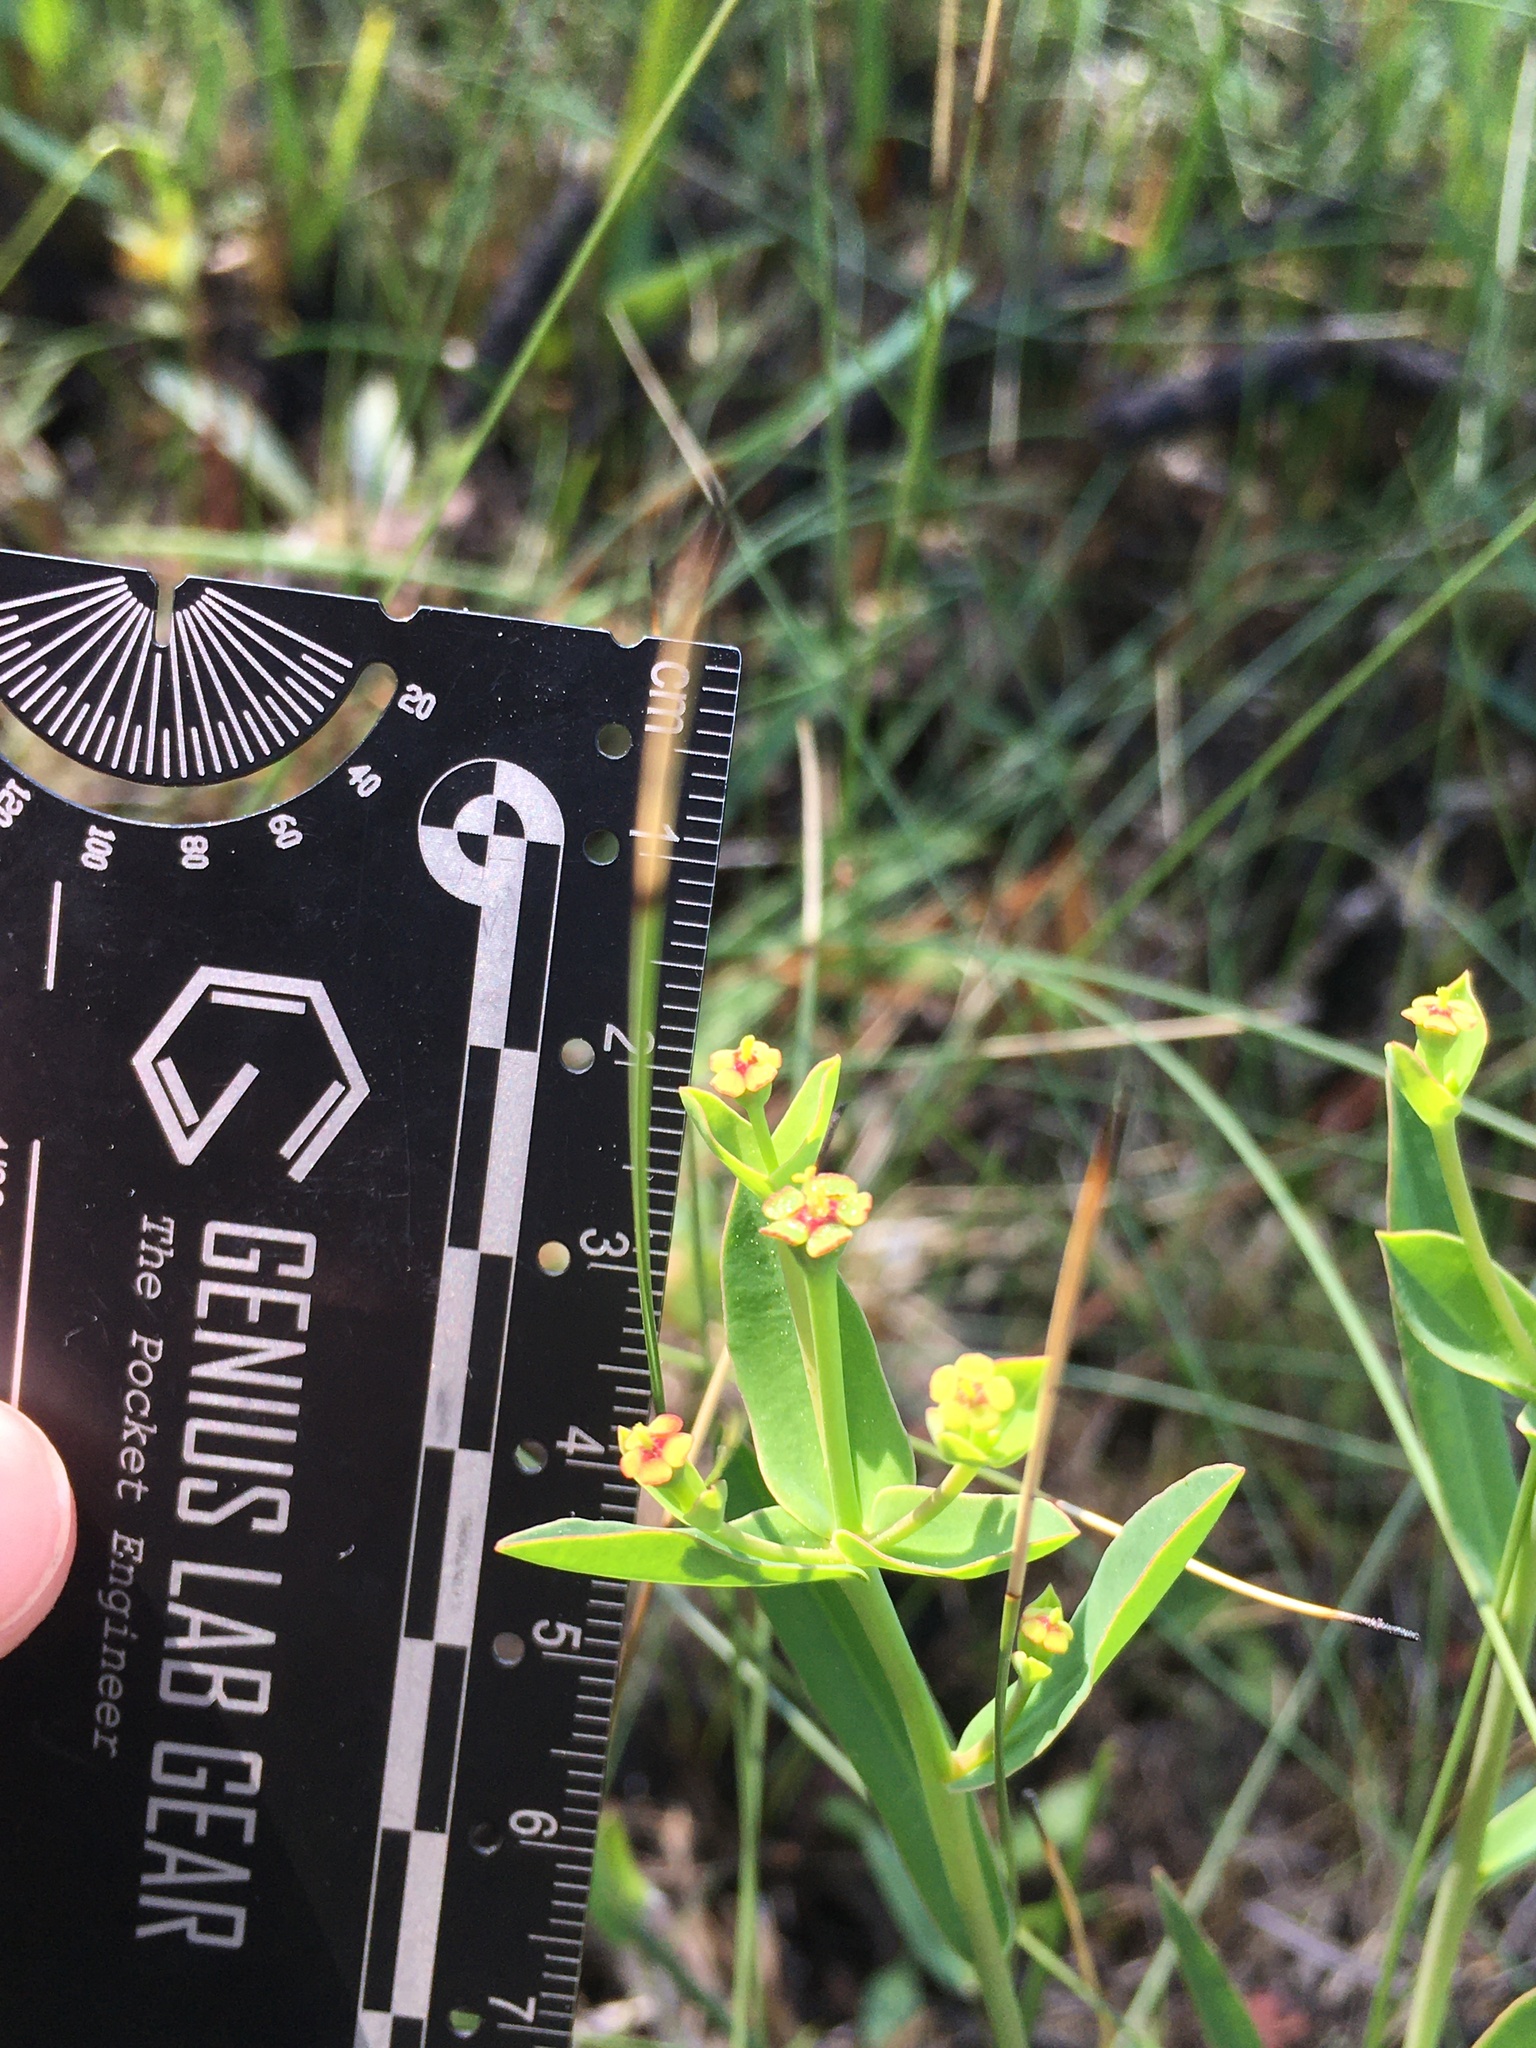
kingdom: Plantae
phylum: Tracheophyta
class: Magnoliopsida
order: Malpighiales
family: Euphorbiaceae
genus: Euphorbia
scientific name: Euphorbia inundata
